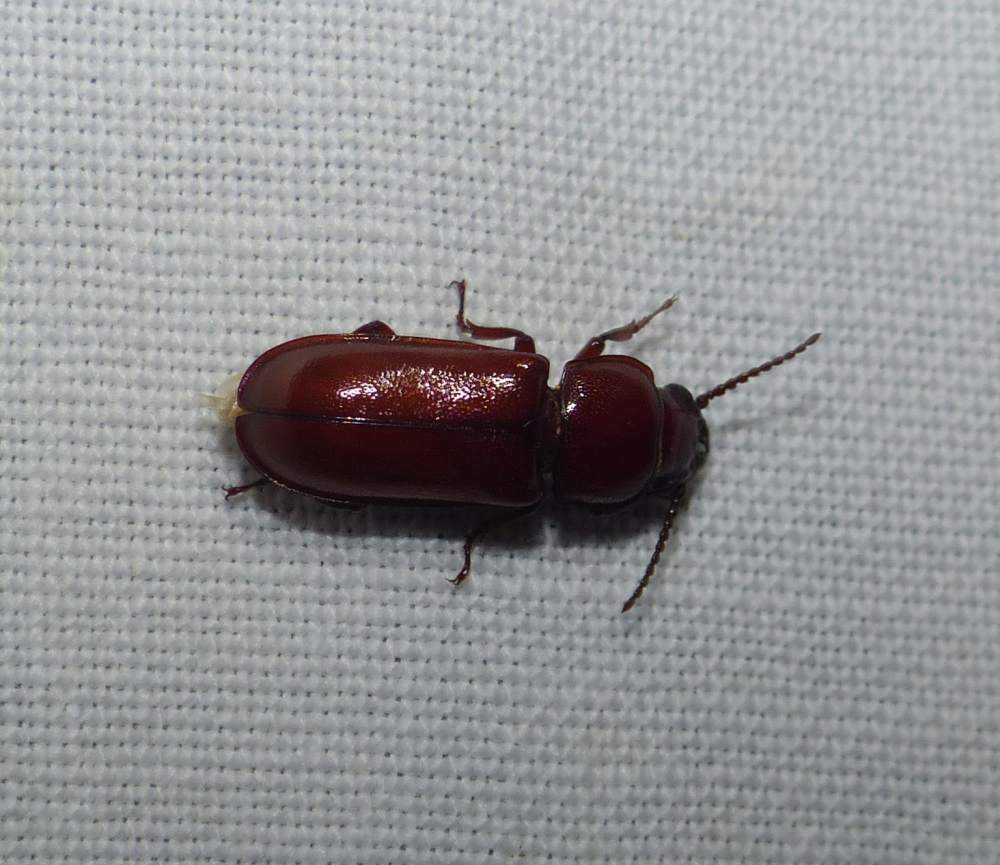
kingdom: Animalia
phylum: Arthropoda
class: Insecta
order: Coleoptera
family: Cerambycidae
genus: Neandra
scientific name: Neandra brunnea
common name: Pole borer
